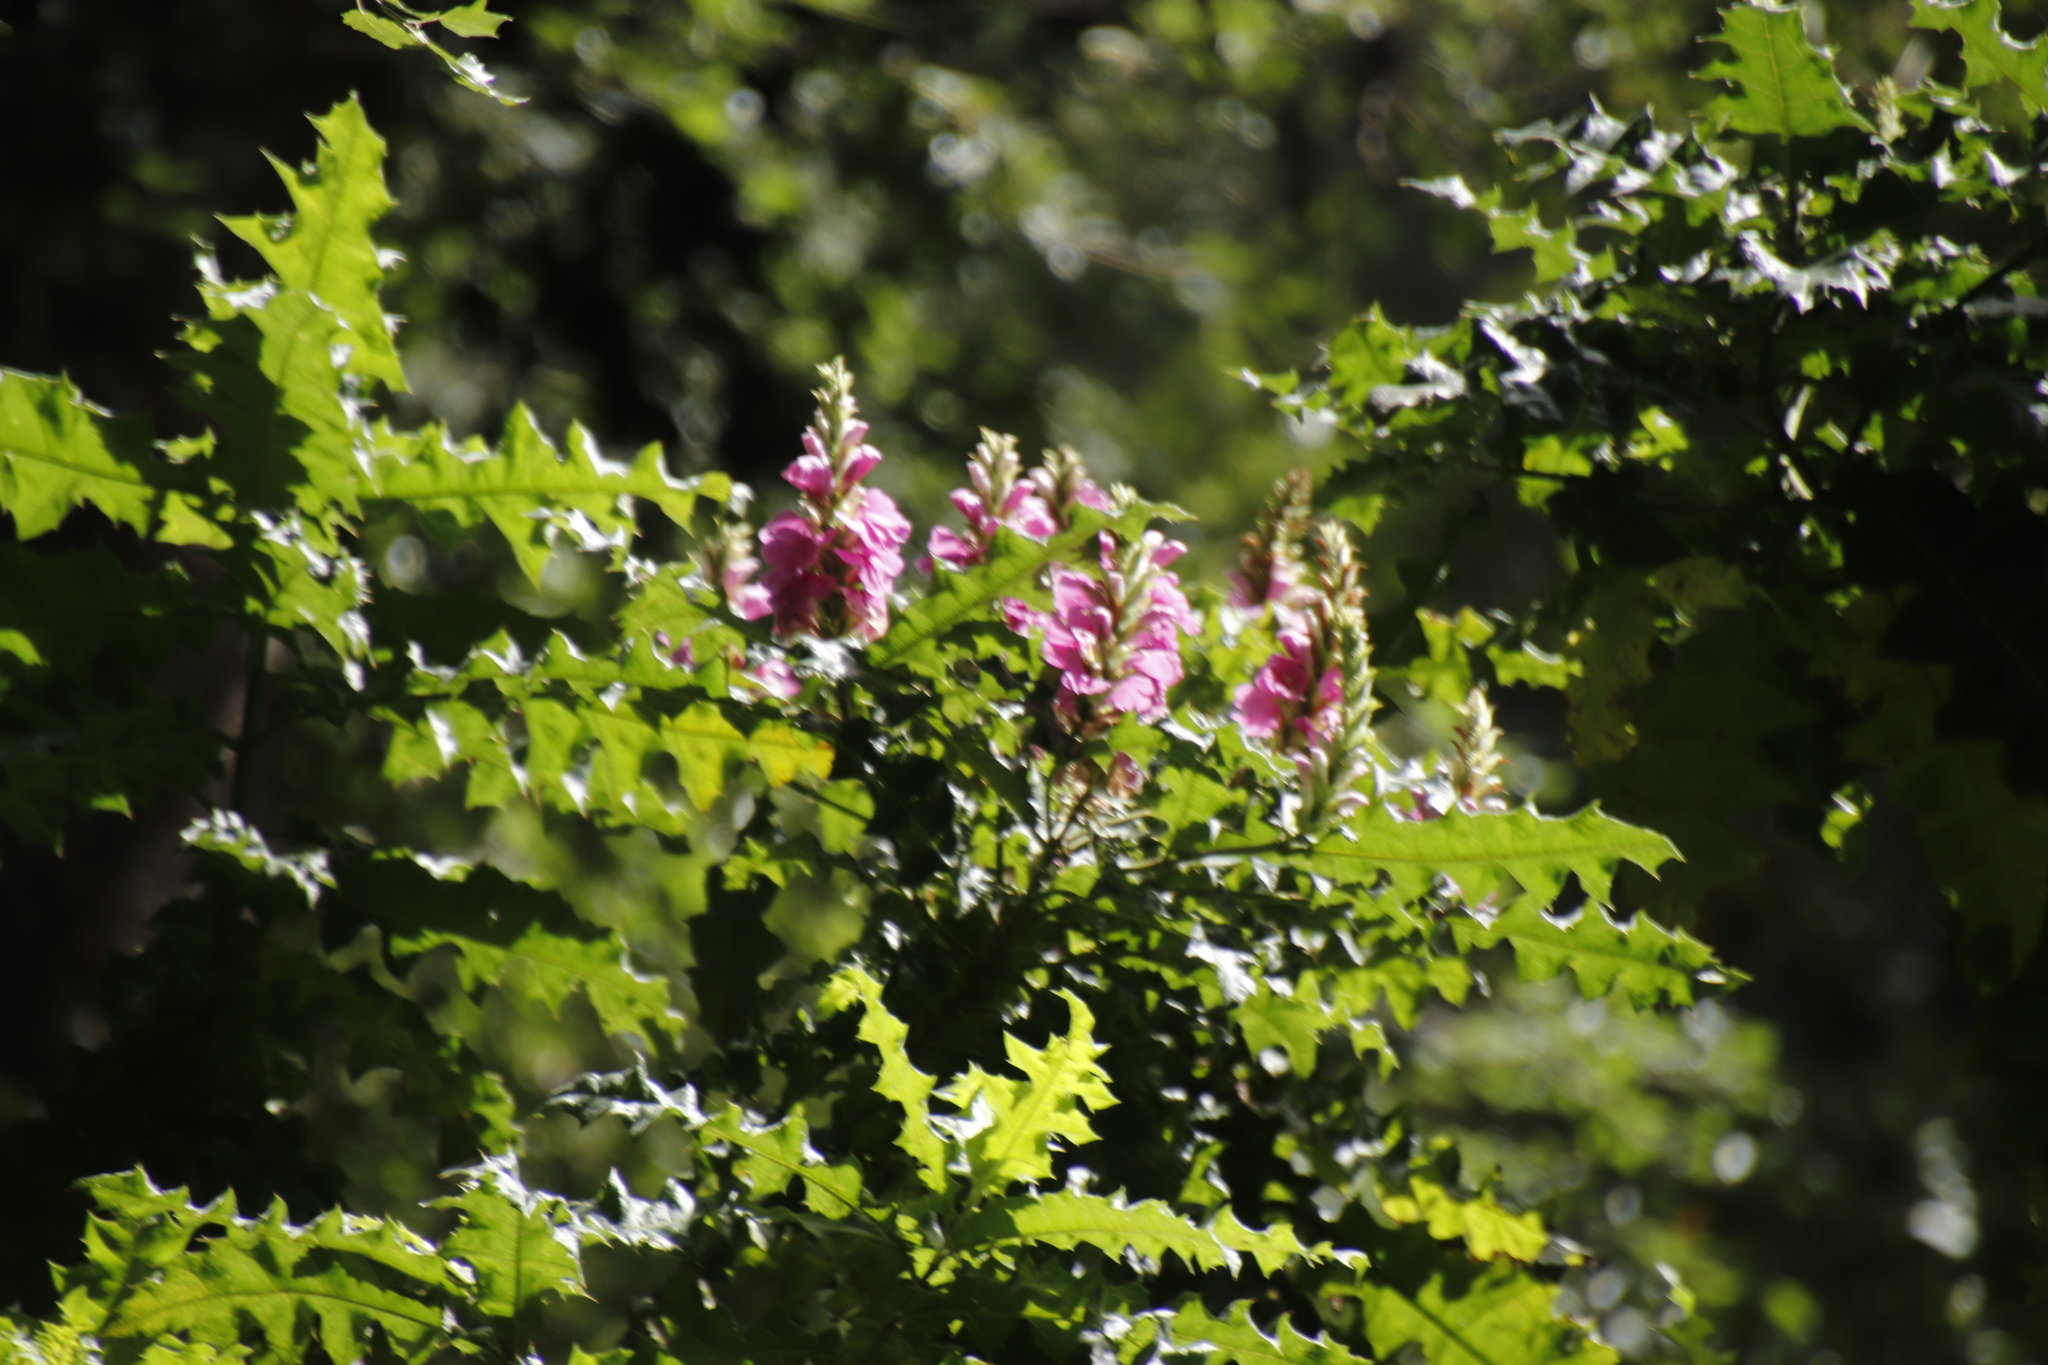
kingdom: Plantae
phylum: Tracheophyta
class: Magnoliopsida
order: Lamiales
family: Acanthaceae
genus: Acanthus
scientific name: Acanthus polystachyus
